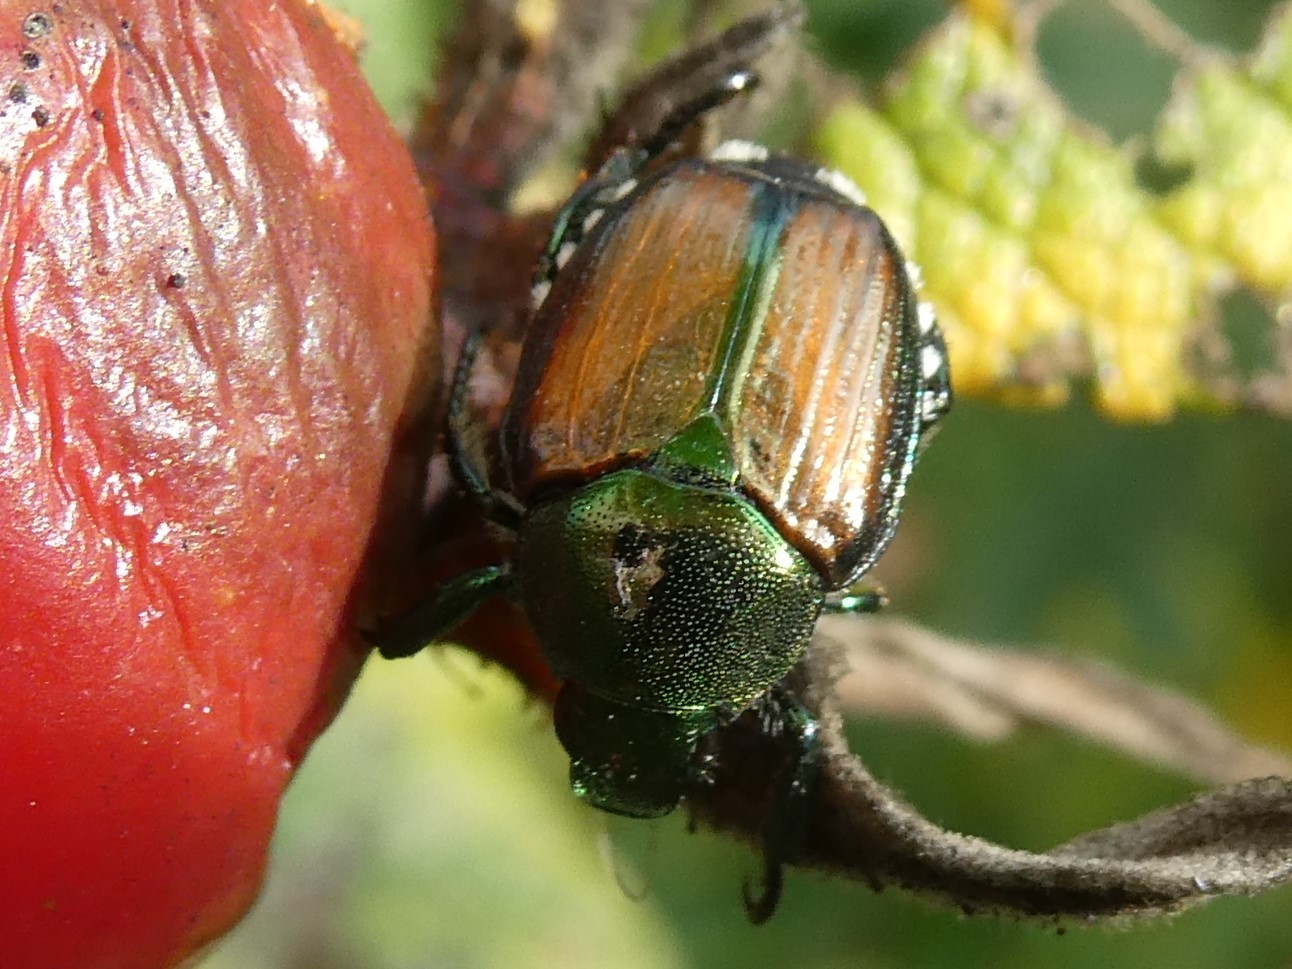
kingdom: Animalia
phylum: Arthropoda
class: Insecta
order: Coleoptera
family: Scarabaeidae
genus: Popillia
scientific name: Popillia japonica
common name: Japanese beetle
